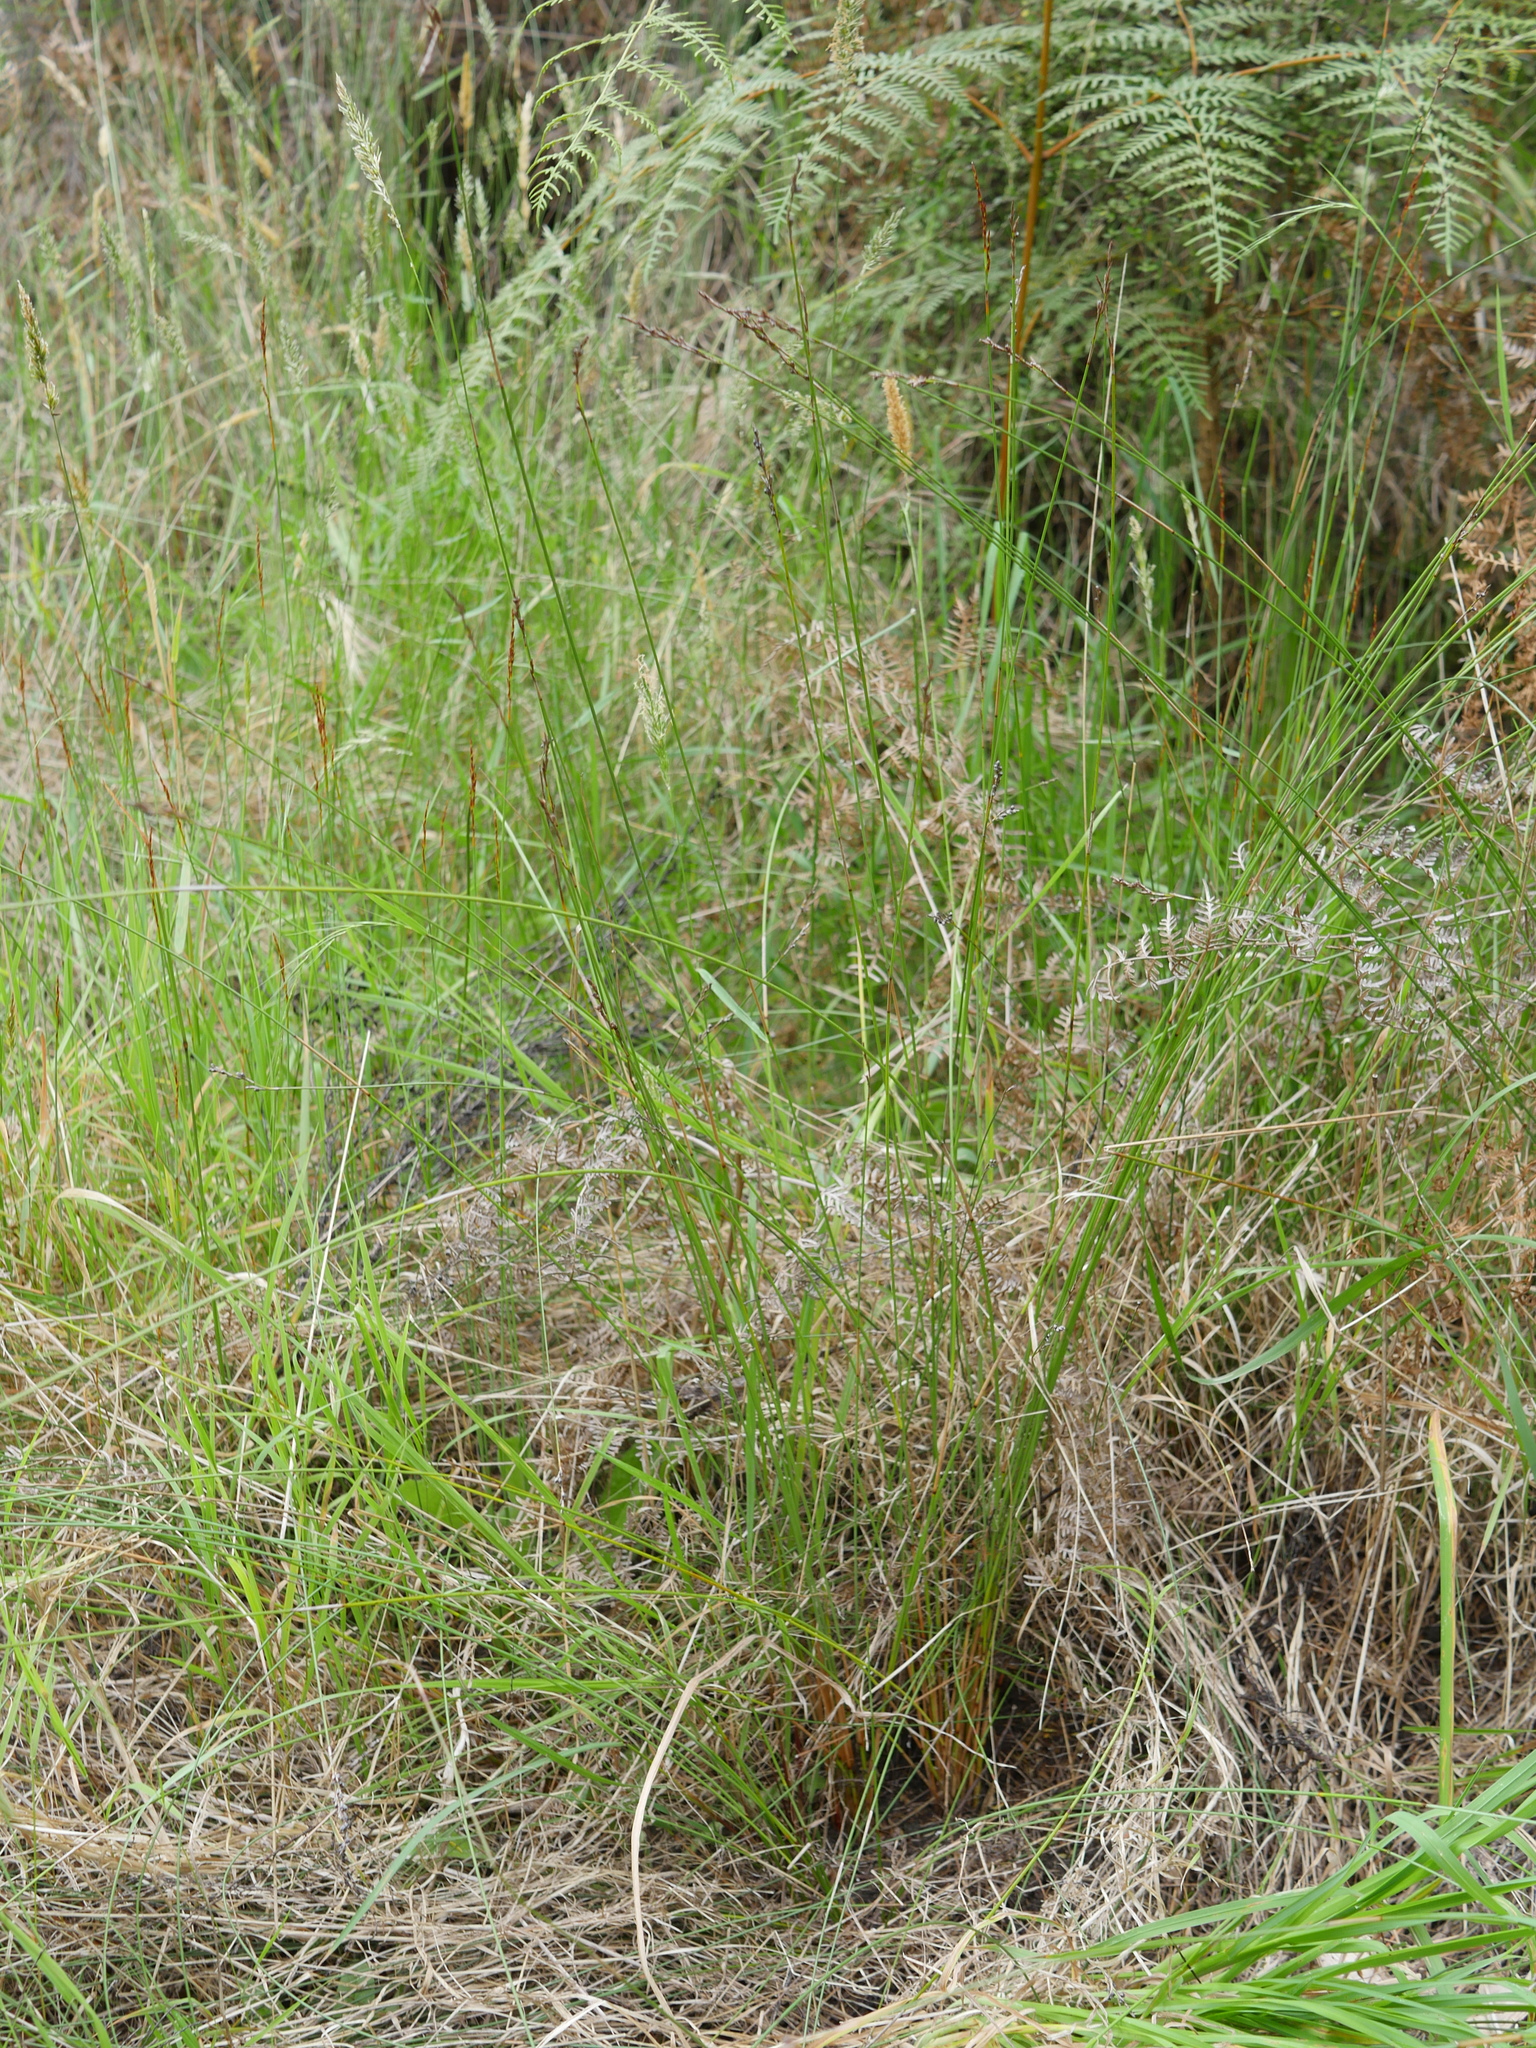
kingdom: Plantae
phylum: Tracheophyta
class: Liliopsida
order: Poales
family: Cyperaceae
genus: Machaerina
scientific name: Machaerina juncea
